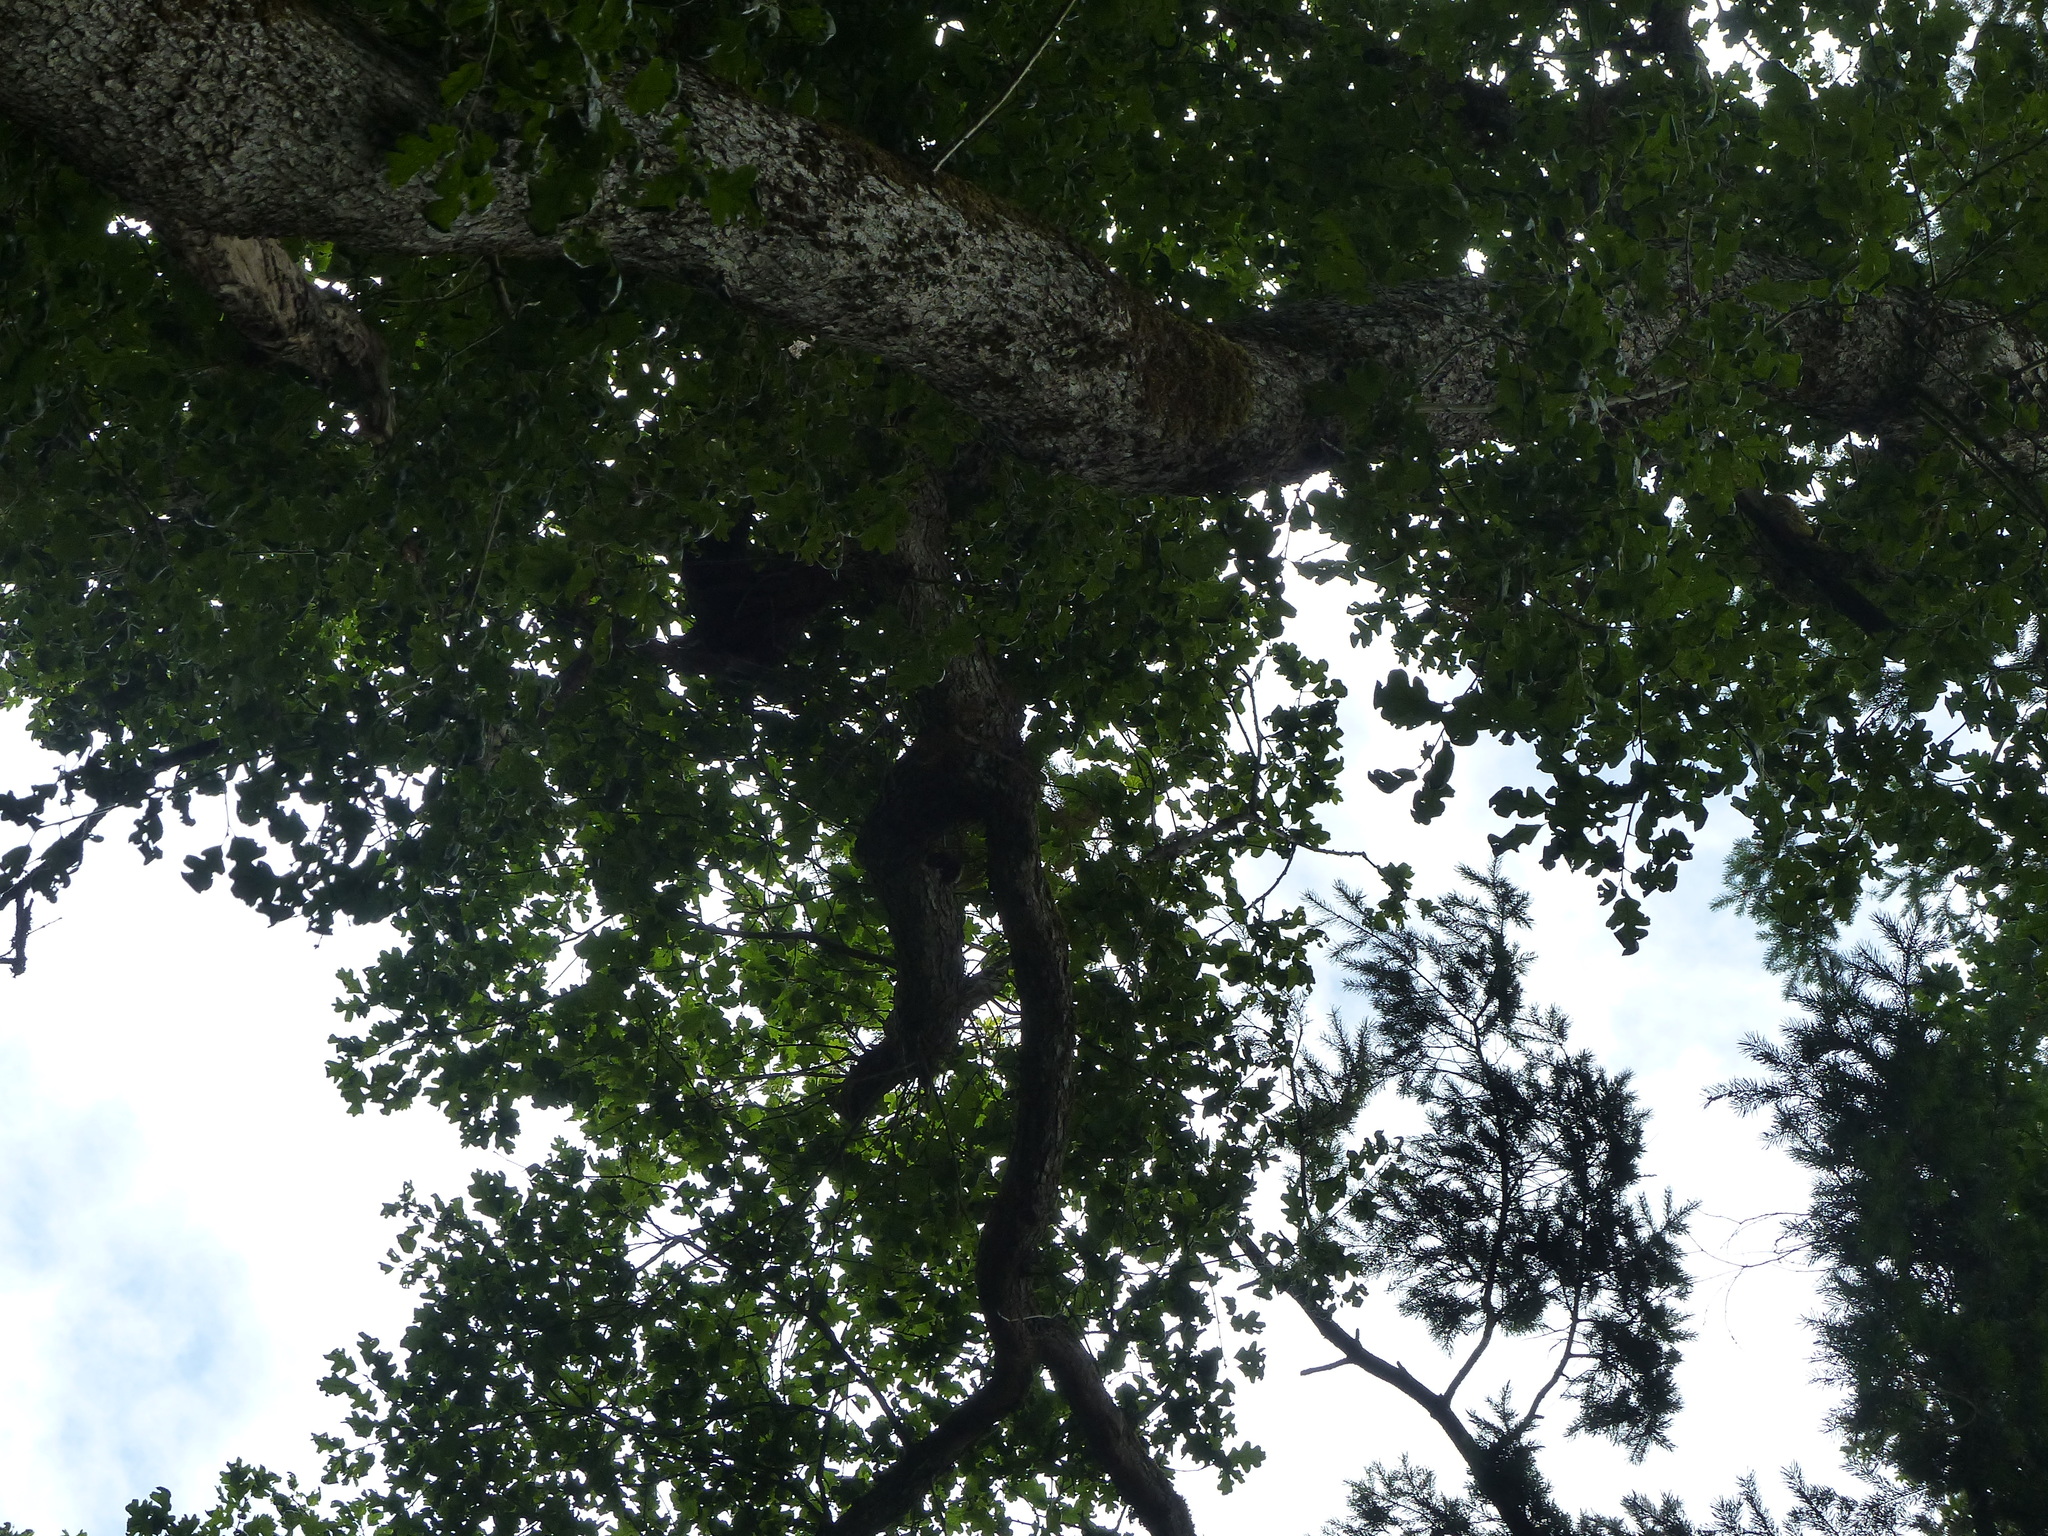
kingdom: Plantae
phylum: Tracheophyta
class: Magnoliopsida
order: Fagales
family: Fagaceae
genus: Quercus
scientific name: Quercus garryana
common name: Garry oak
